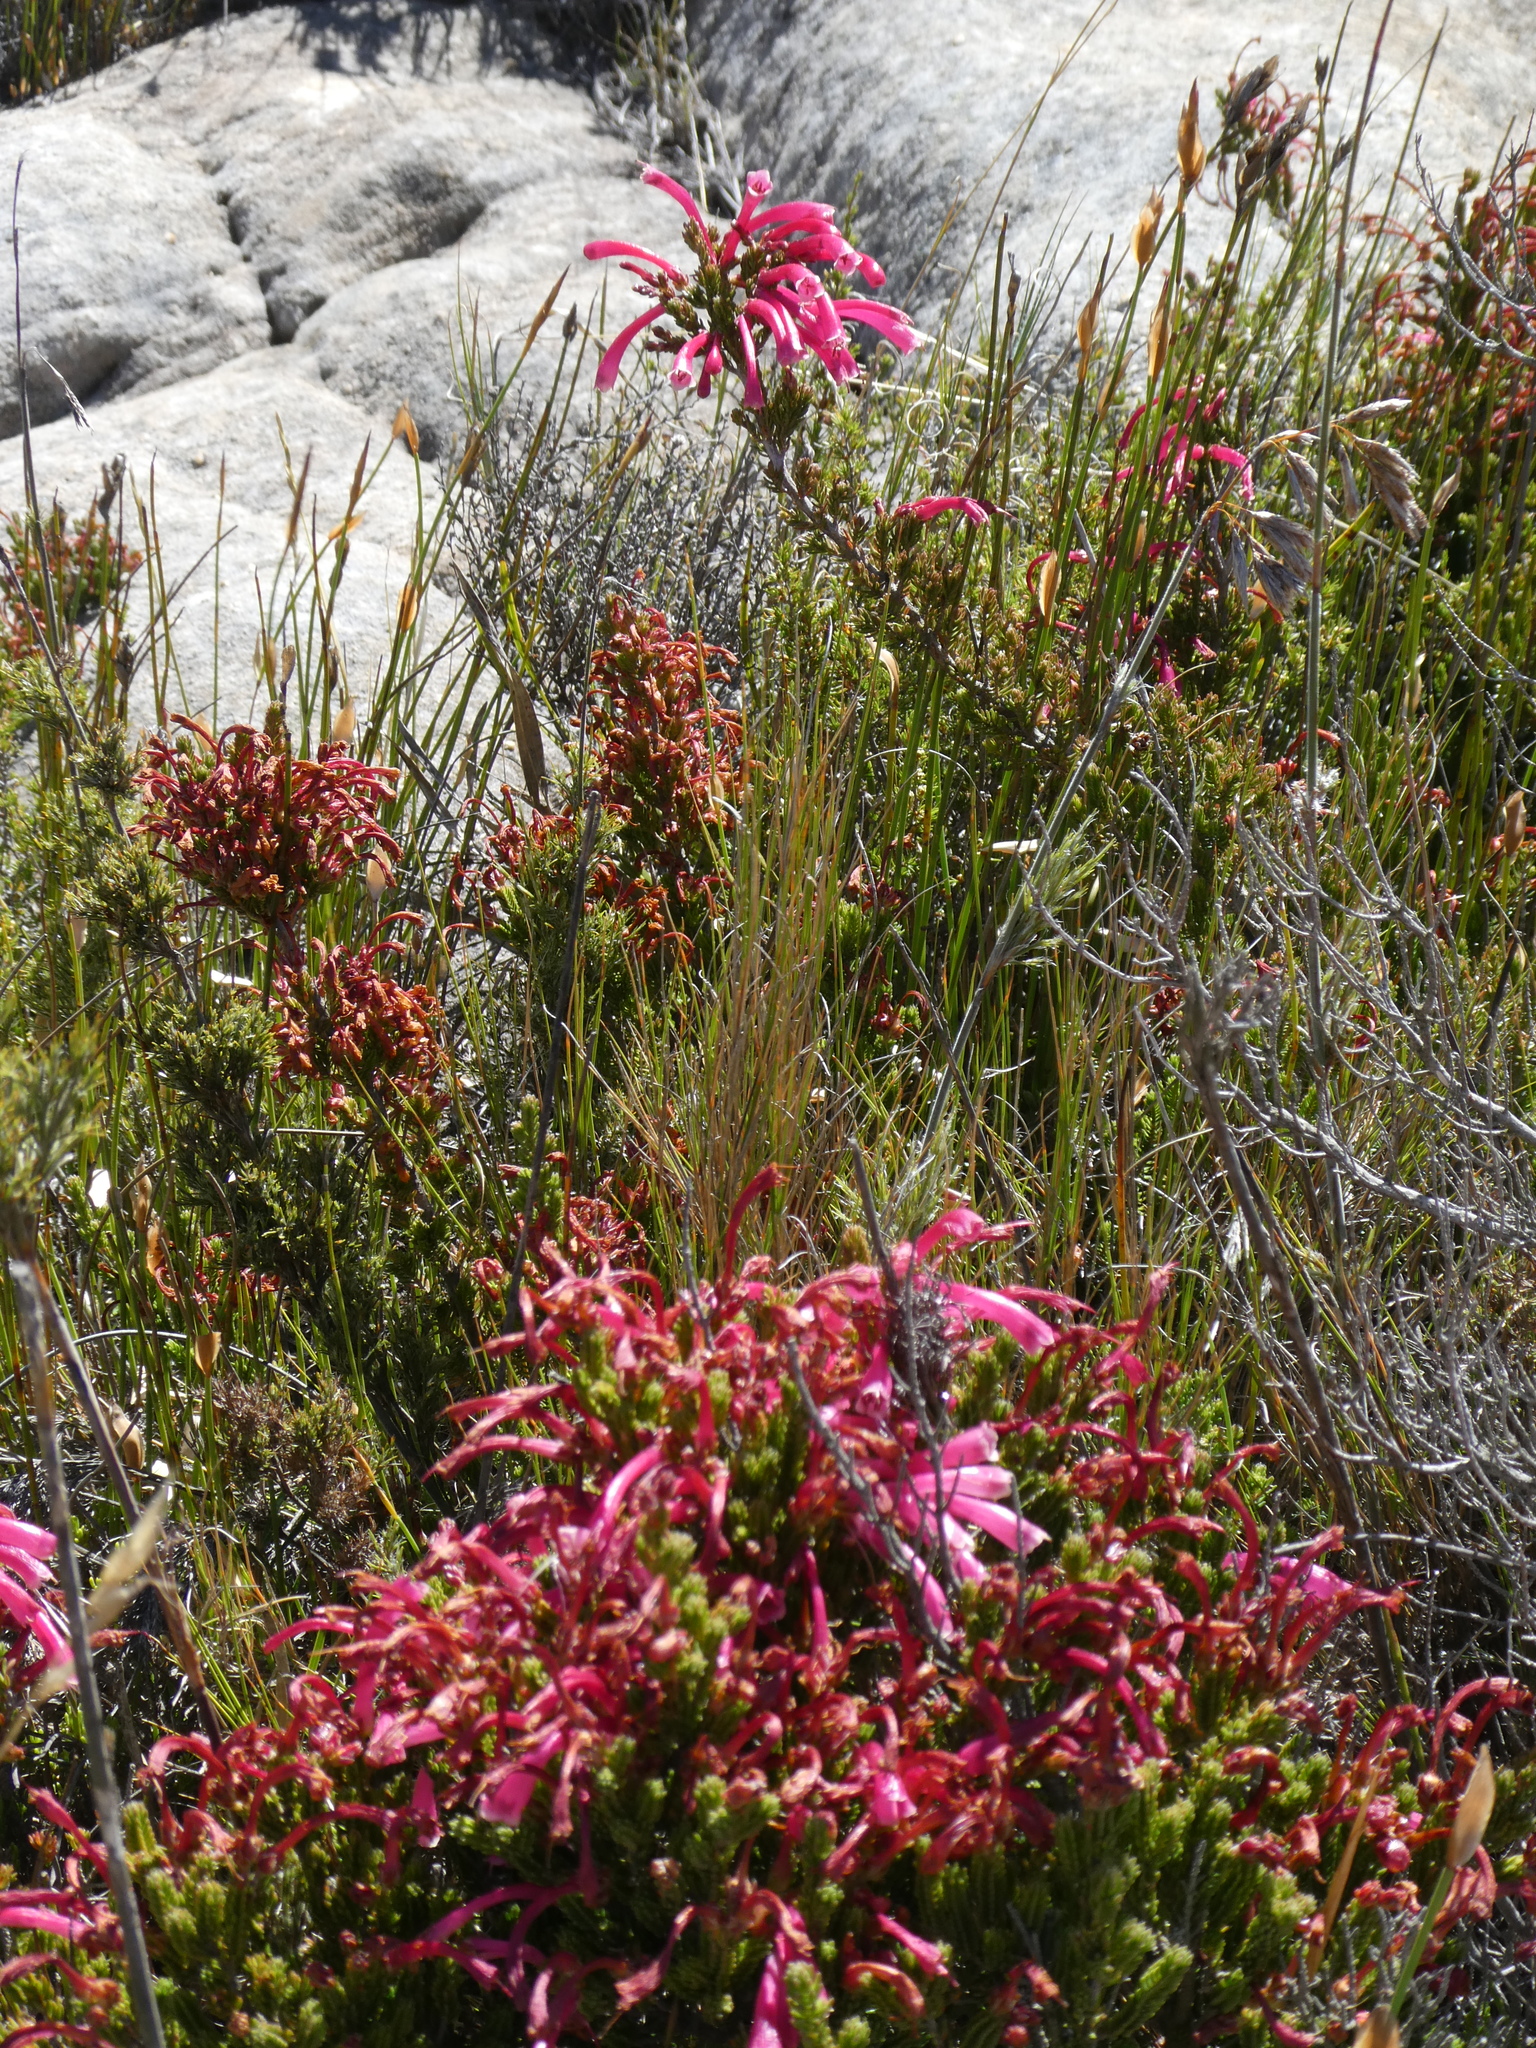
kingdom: Plantae
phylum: Tracheophyta
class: Magnoliopsida
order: Ericales
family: Ericaceae
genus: Erica
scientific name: Erica discolor
